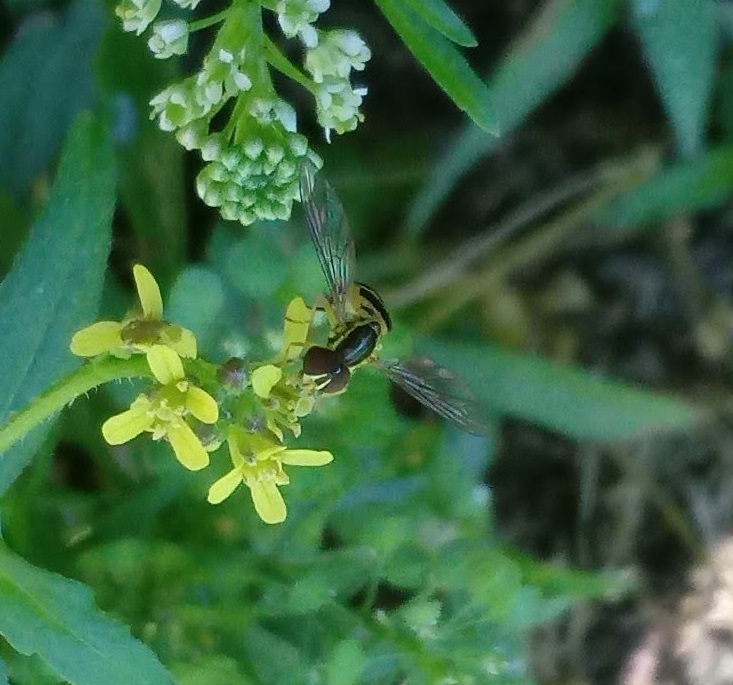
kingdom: Animalia
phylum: Arthropoda
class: Insecta
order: Diptera
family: Syrphidae
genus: Toxomerus
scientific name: Toxomerus geminatus
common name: Eastern calligrapher
